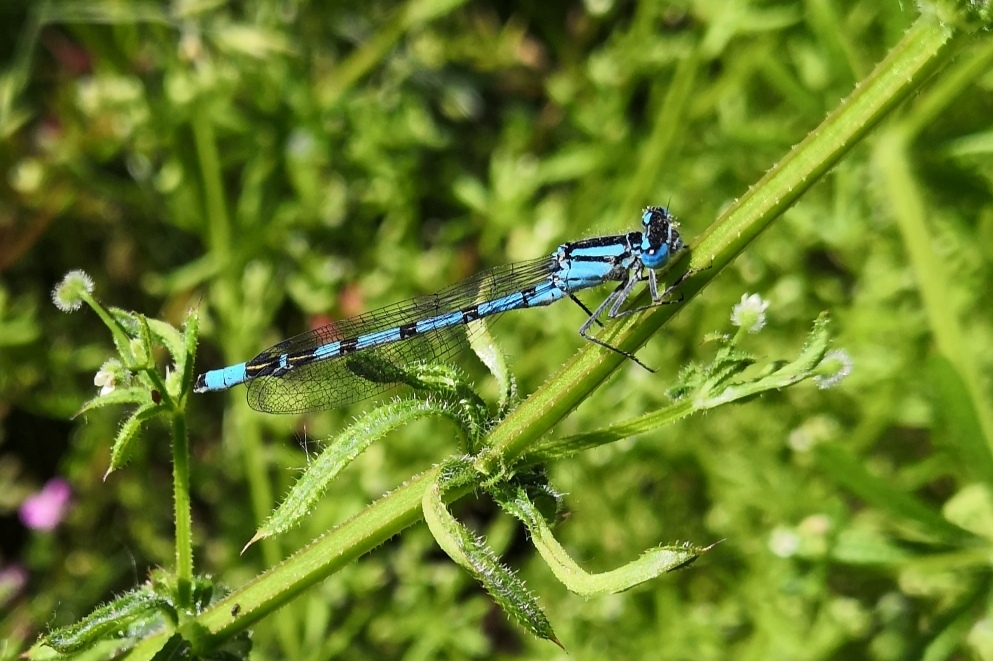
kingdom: Animalia
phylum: Arthropoda
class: Insecta
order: Odonata
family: Coenagrionidae
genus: Enallagma
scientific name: Enallagma cyathigerum
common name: Common blue damselfly
